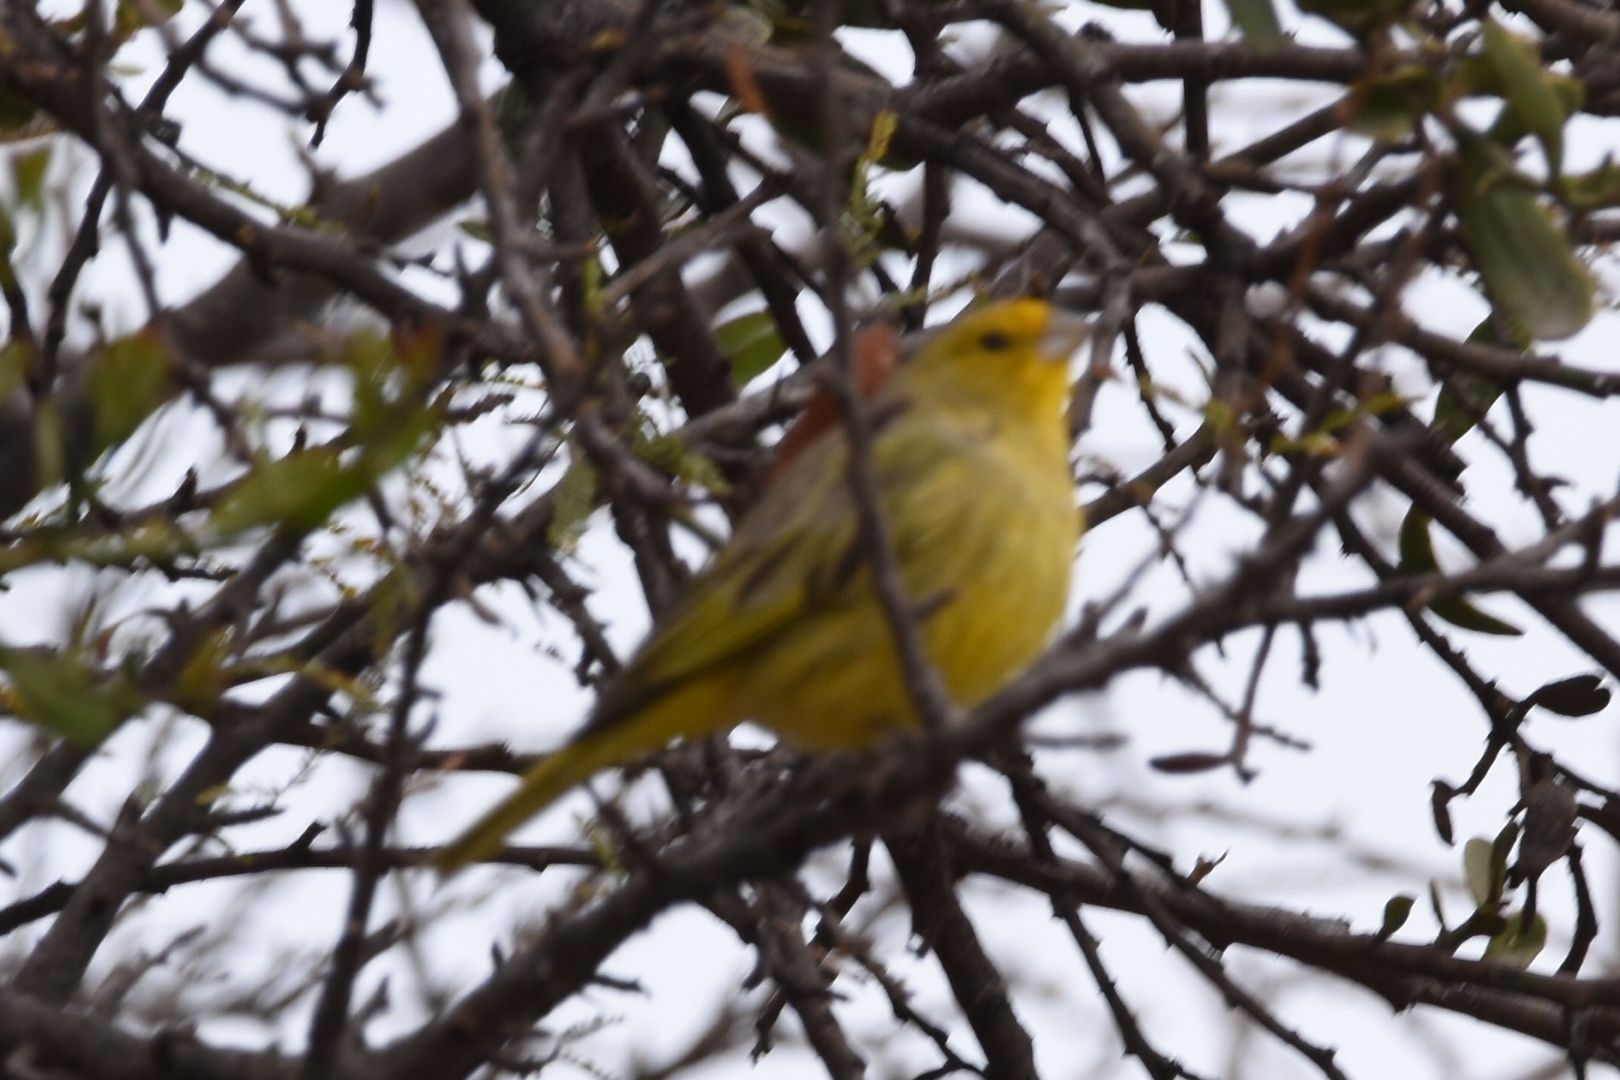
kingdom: Animalia
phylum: Chordata
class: Aves
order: Passeriformes
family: Thraupidae
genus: Sicalis
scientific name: Sicalis flaveola
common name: Saffron finch
